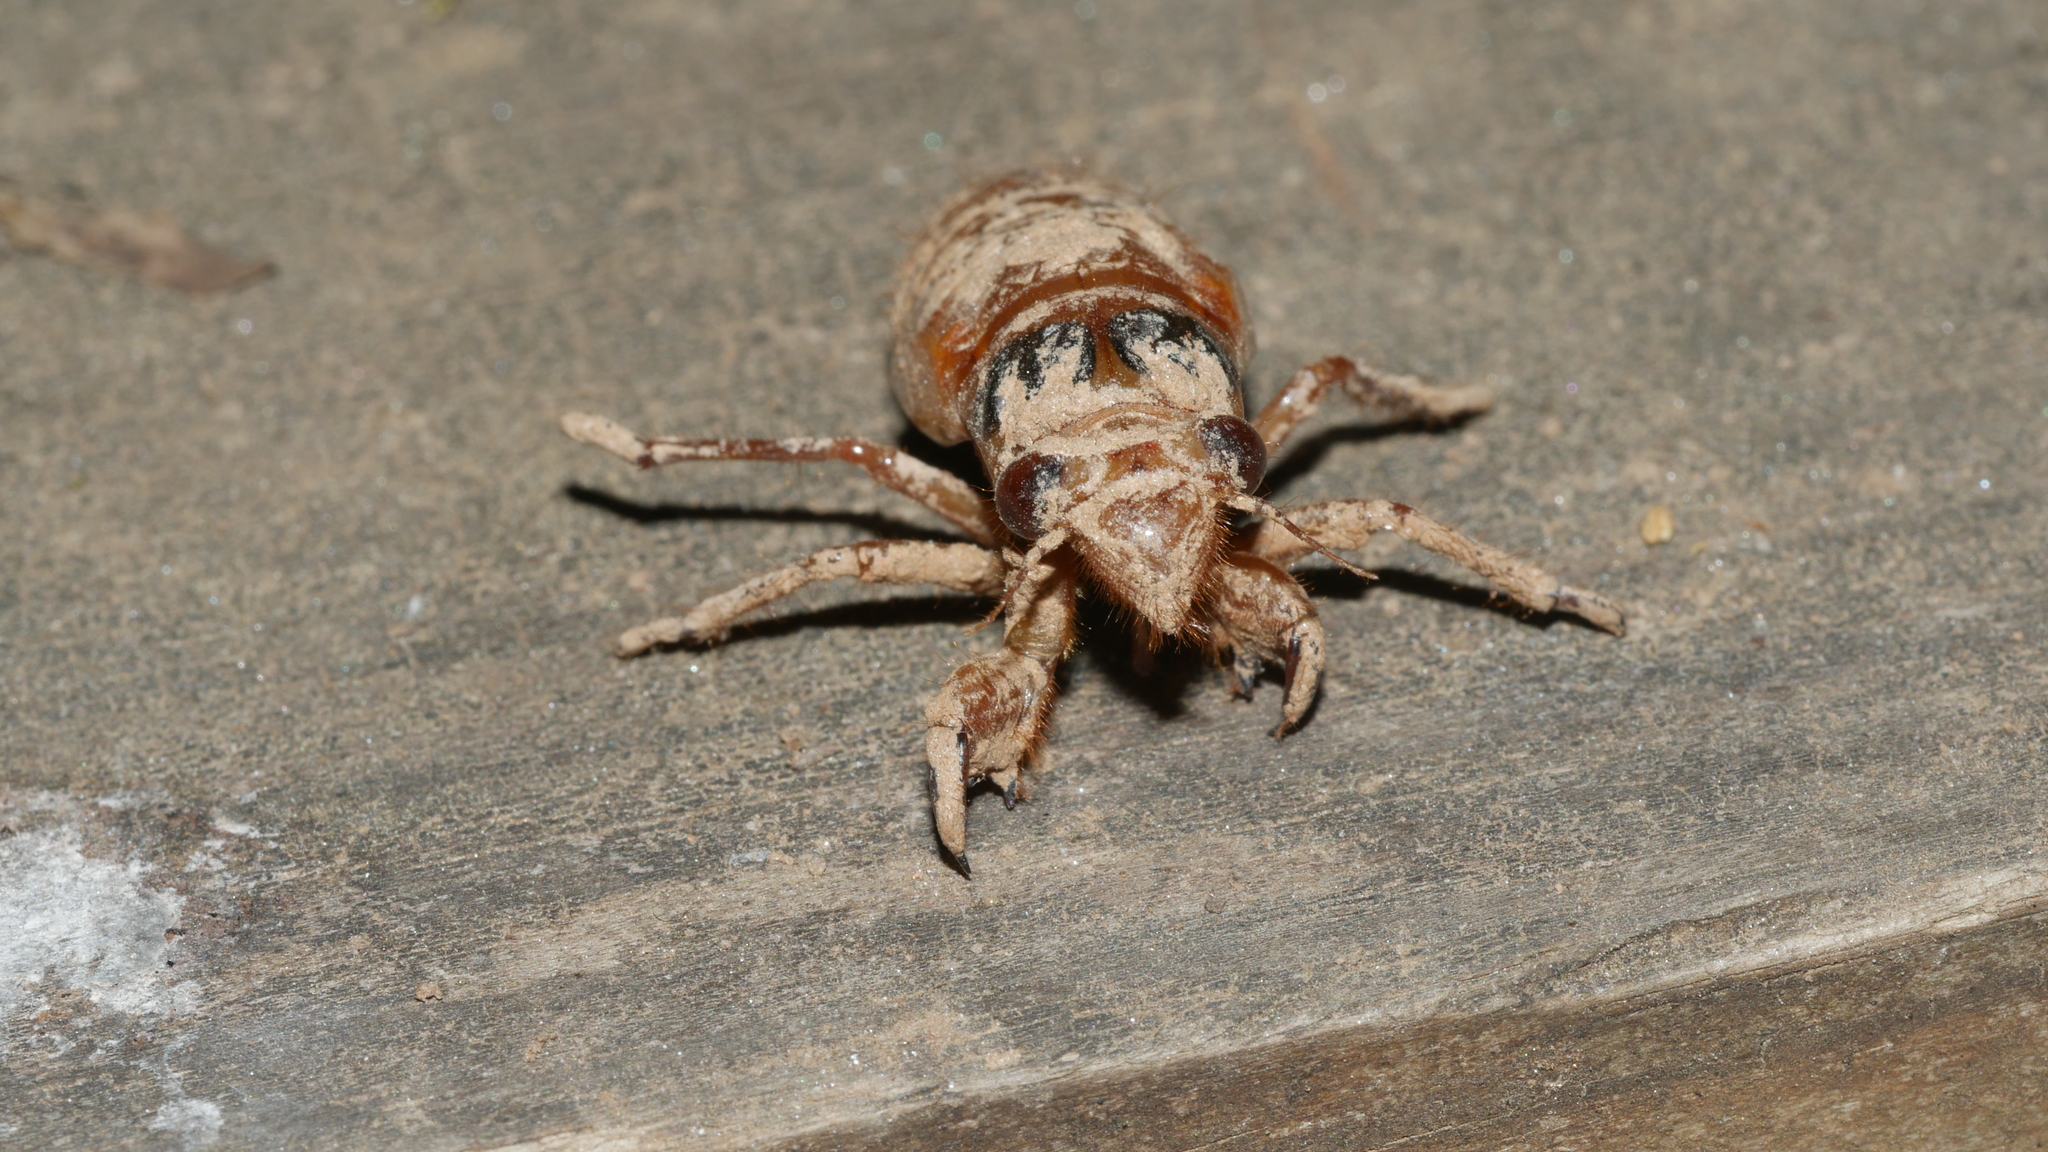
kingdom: Animalia
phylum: Arthropoda
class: Insecta
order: Hemiptera
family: Cicadidae
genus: Magicicada
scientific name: Magicicada
